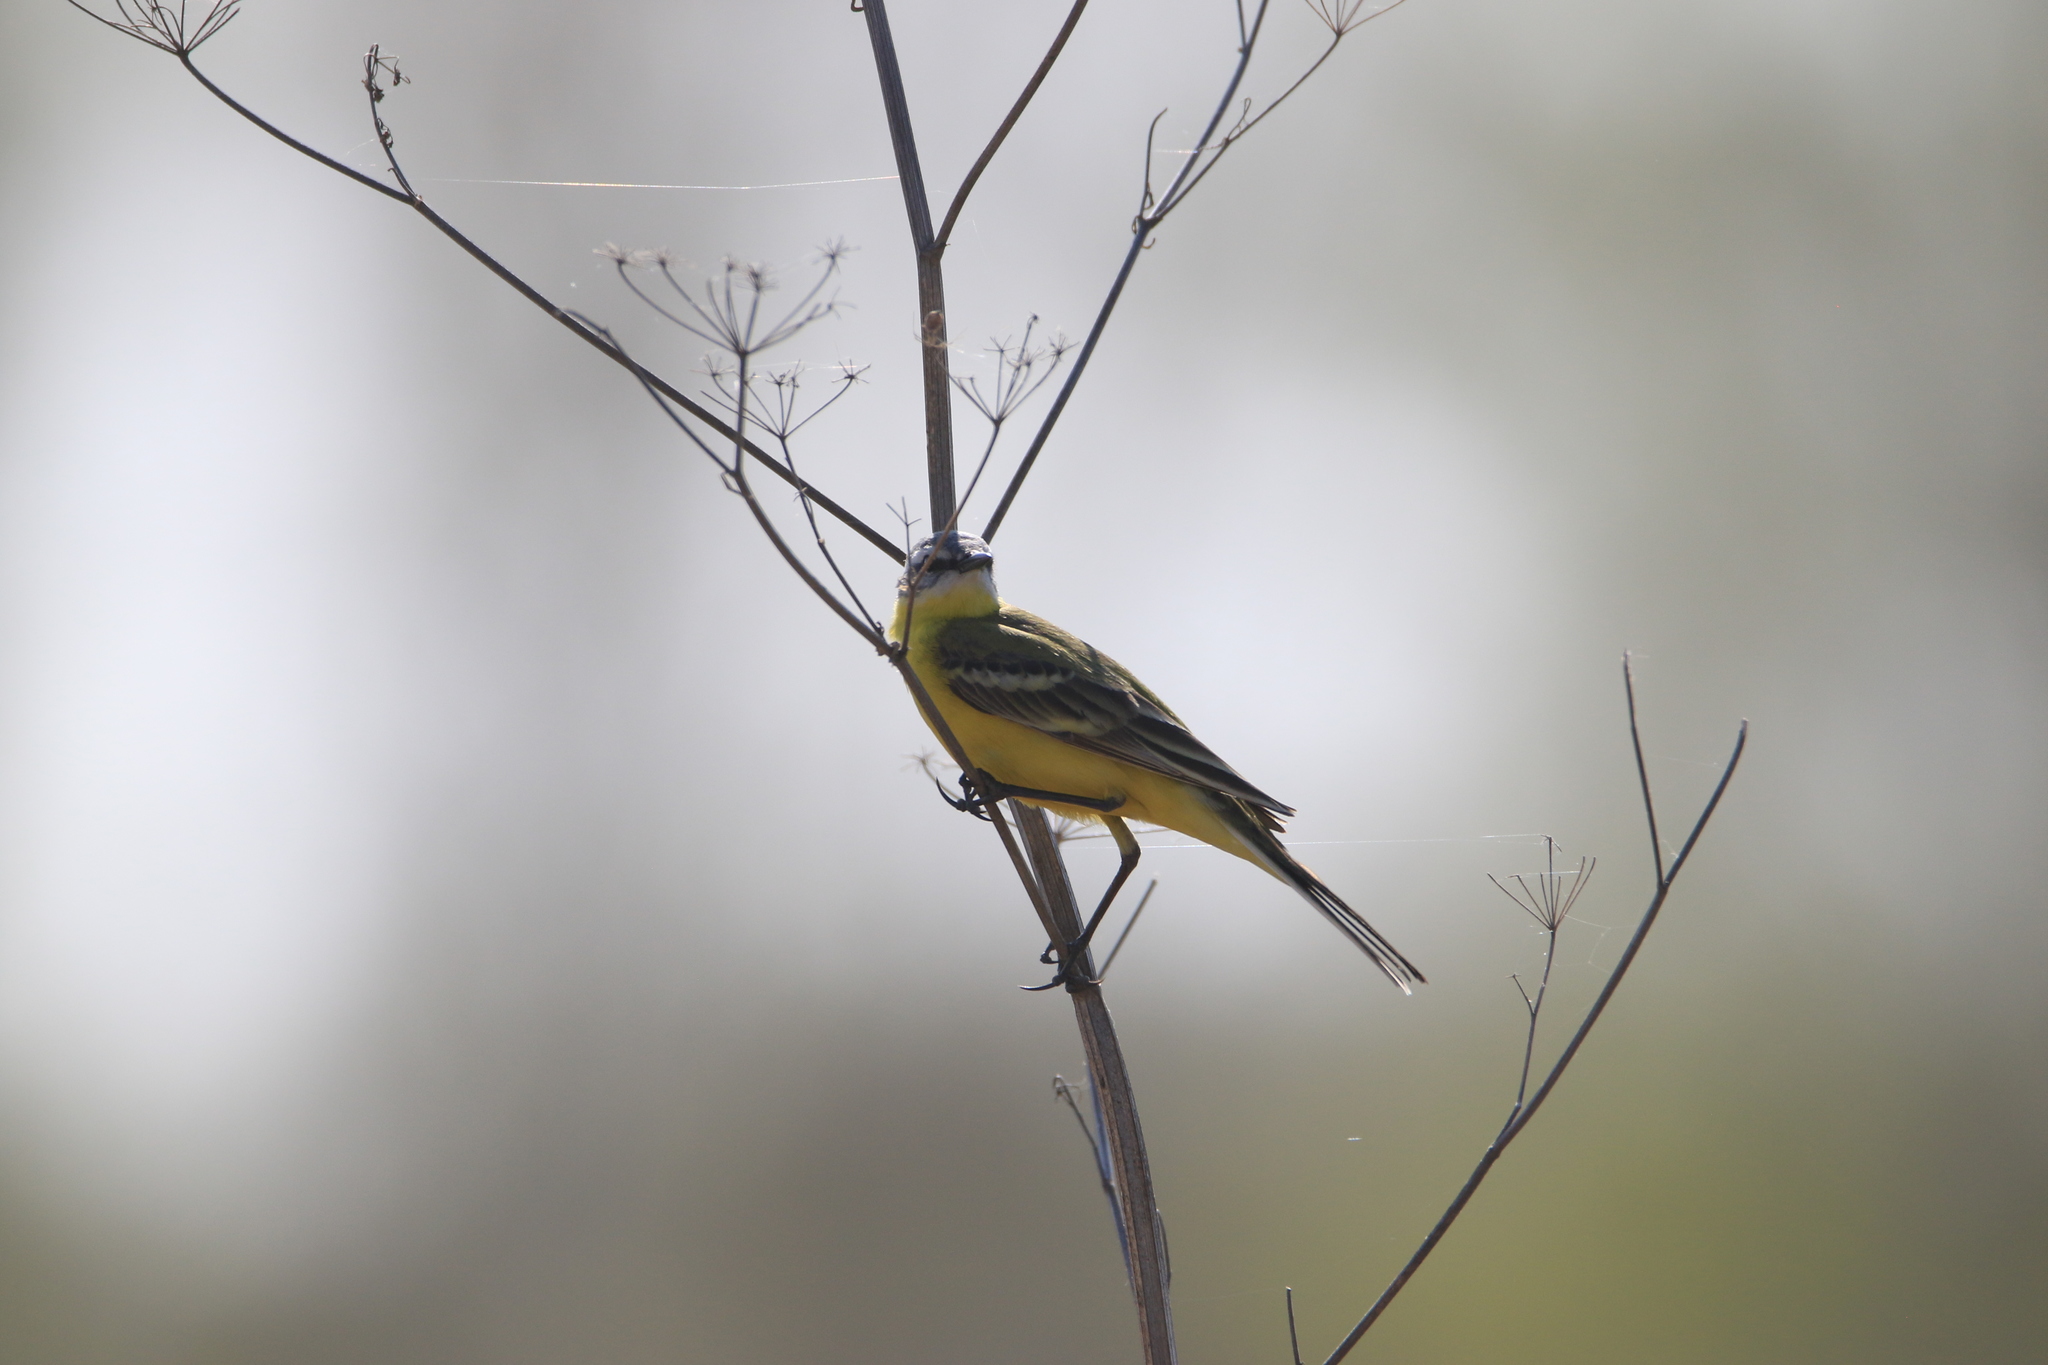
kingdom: Animalia
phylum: Chordata
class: Aves
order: Passeriformes
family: Motacillidae
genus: Motacilla
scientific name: Motacilla flava
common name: Western yellow wagtail
